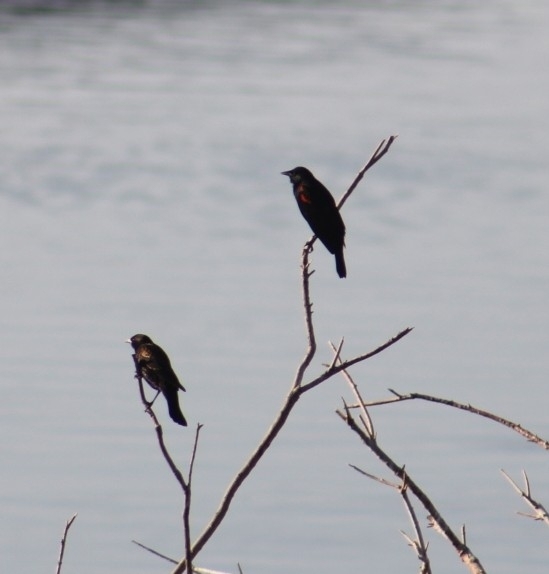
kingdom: Animalia
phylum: Chordata
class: Aves
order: Passeriformes
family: Icteridae
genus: Agelaius
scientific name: Agelaius phoeniceus
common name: Red-winged blackbird
